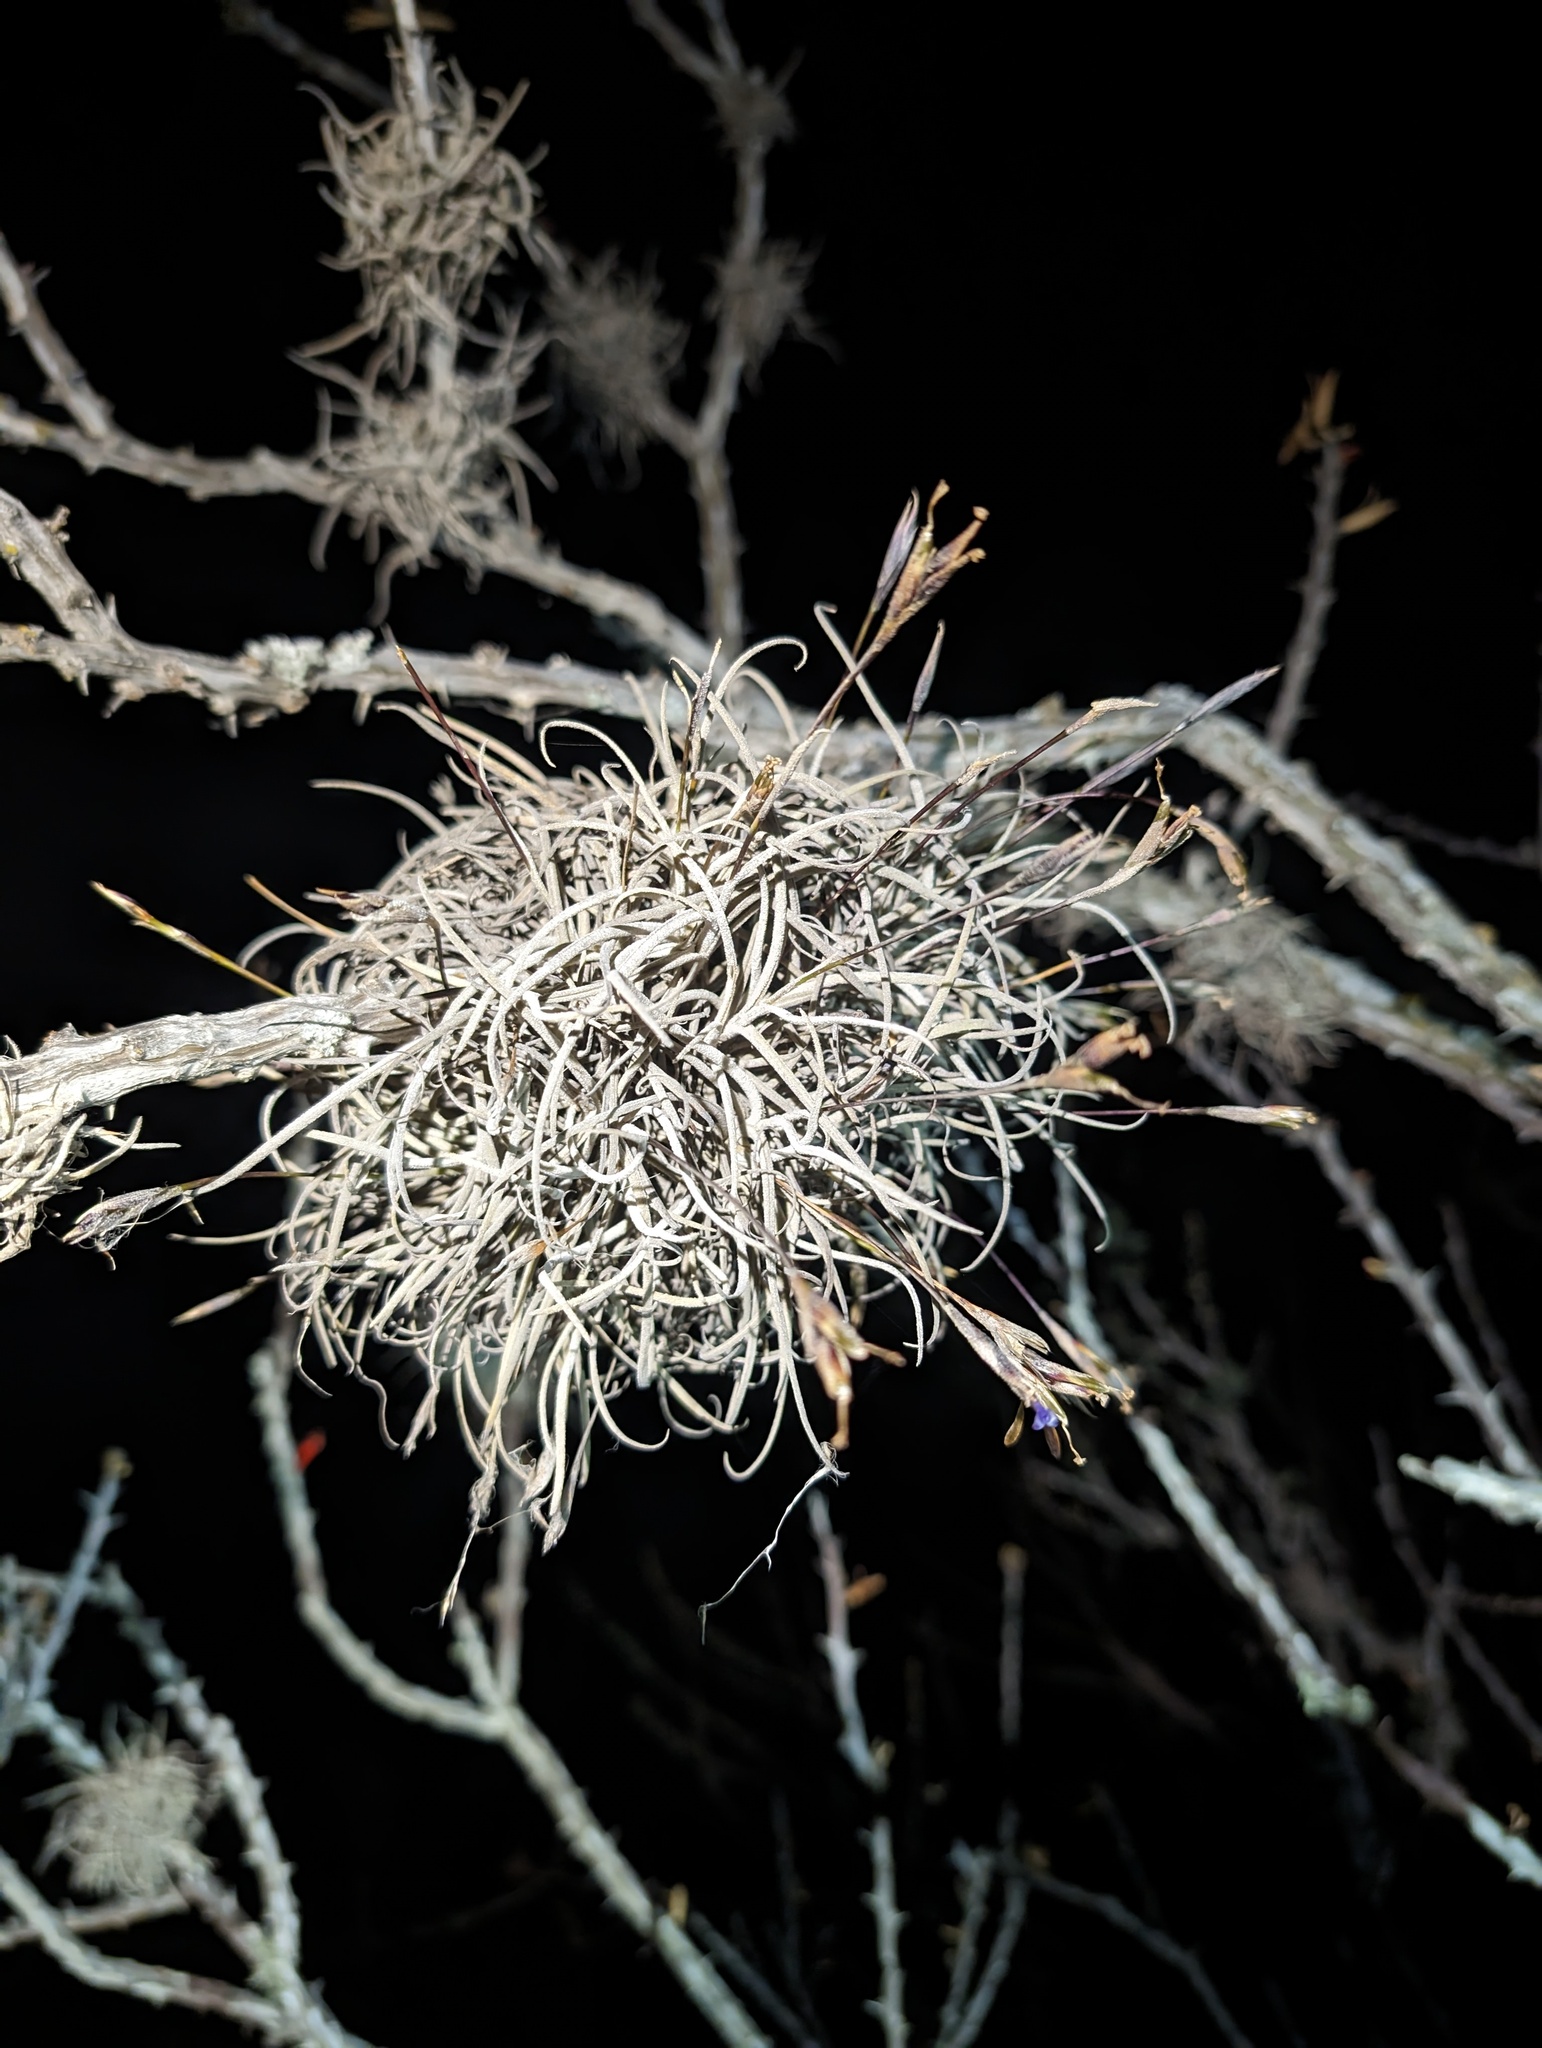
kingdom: Plantae
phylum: Tracheophyta
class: Liliopsida
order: Poales
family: Bromeliaceae
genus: Tillandsia
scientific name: Tillandsia recurvata
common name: Small ballmoss
